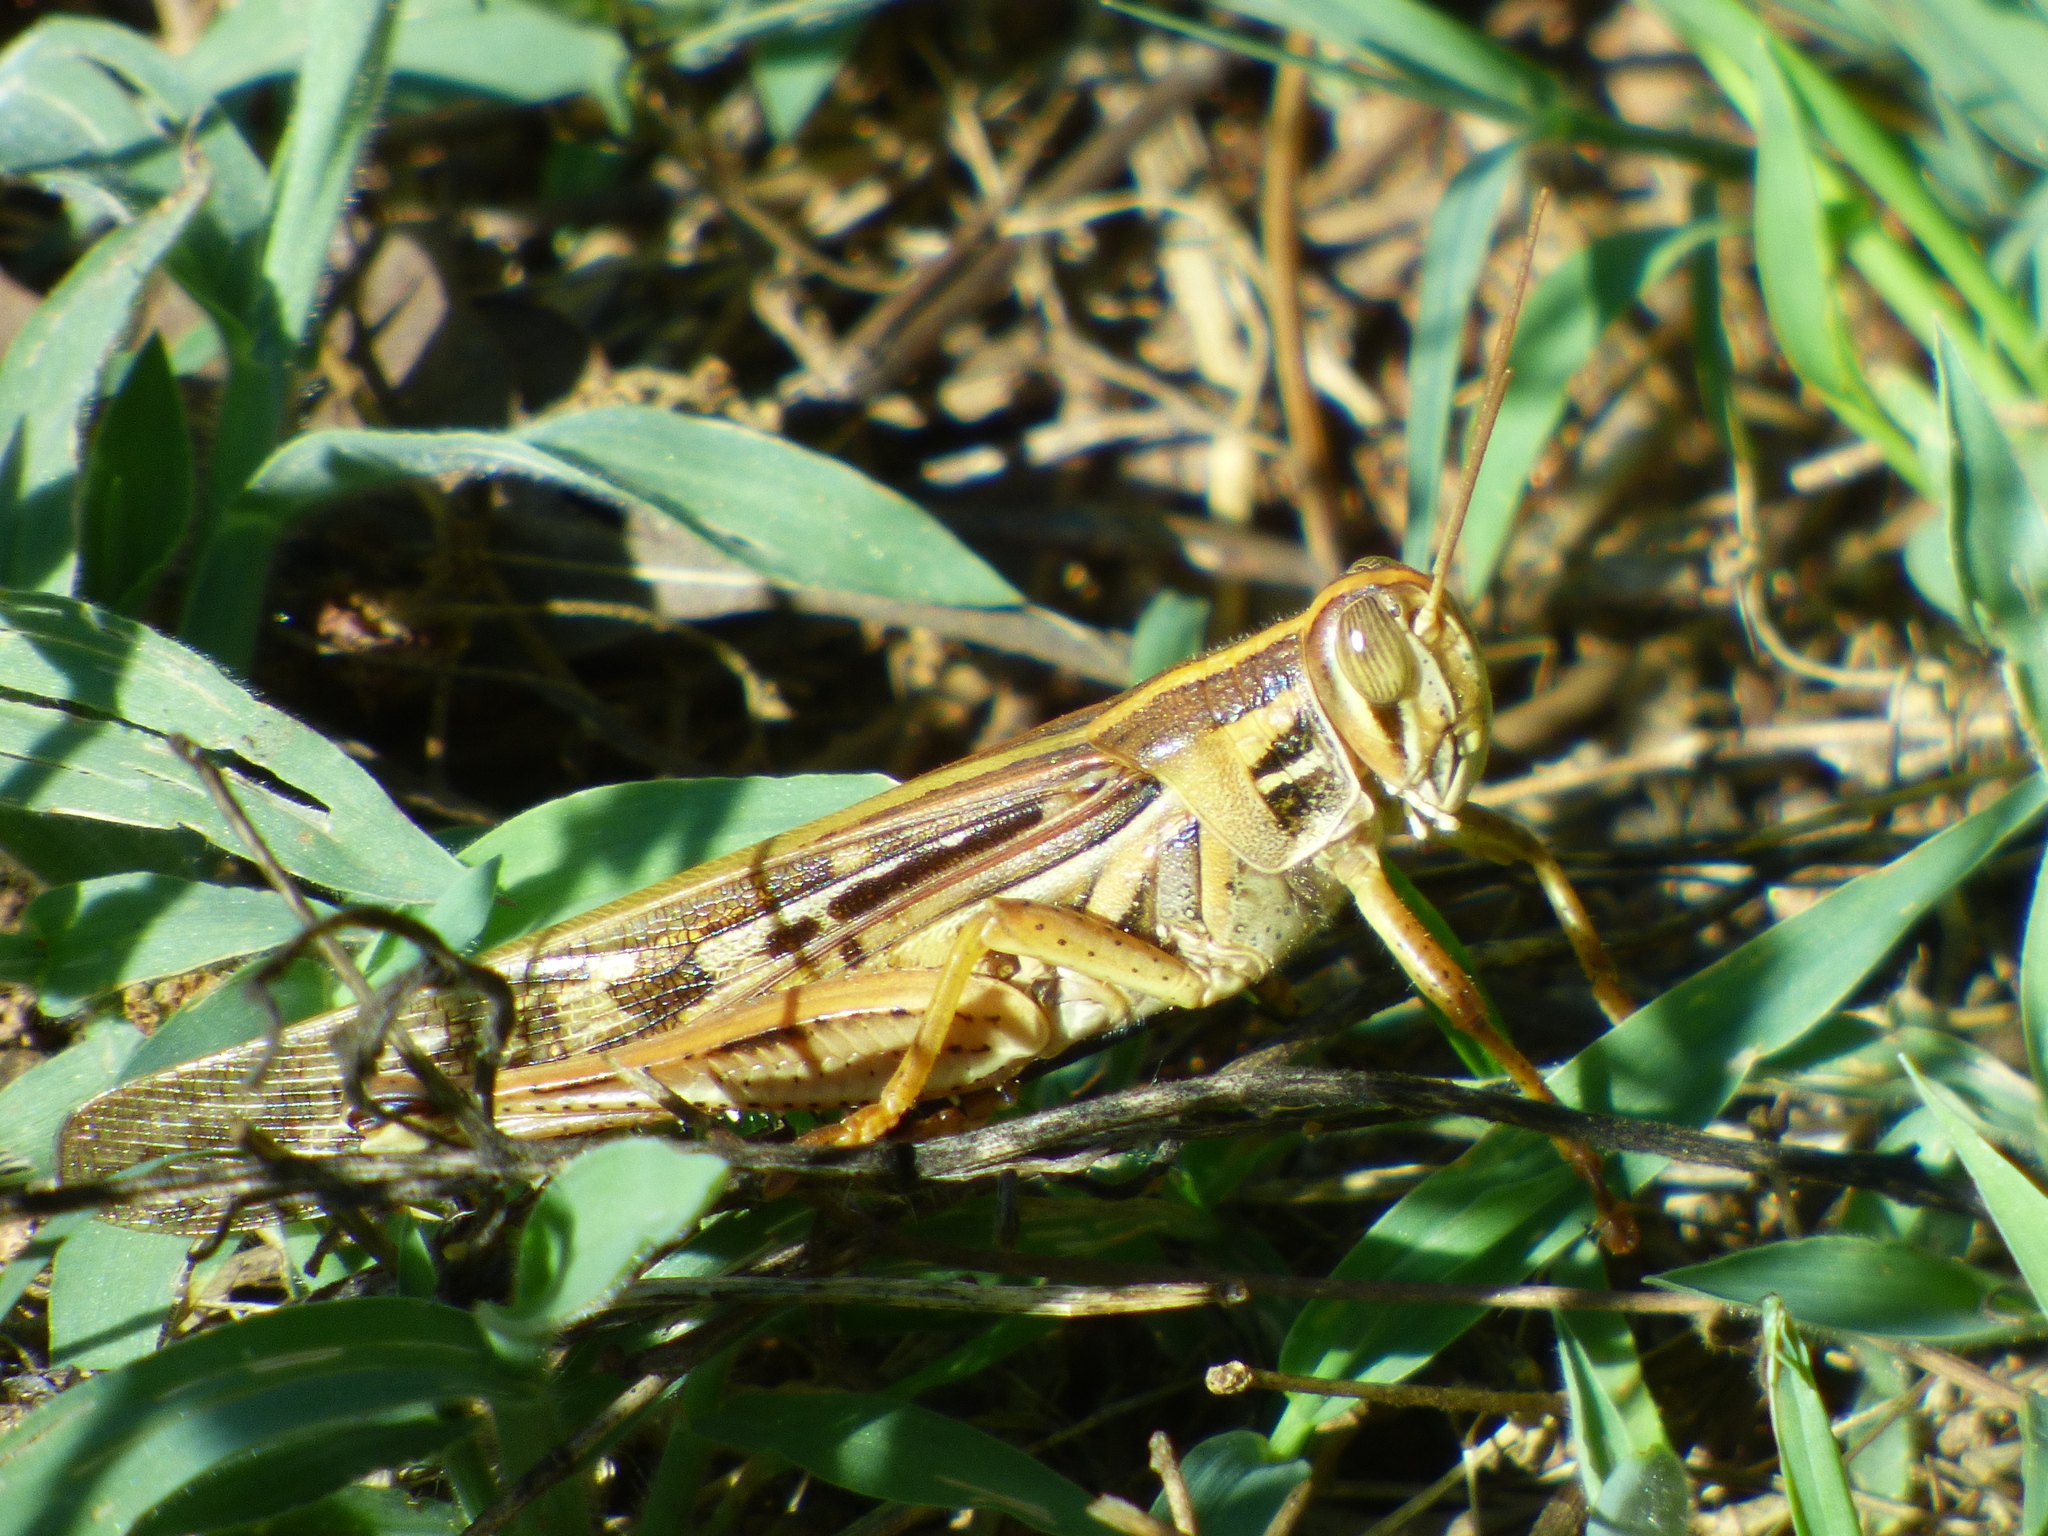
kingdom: Animalia
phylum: Arthropoda
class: Insecta
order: Orthoptera
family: Acrididae
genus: Schistocerca
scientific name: Schistocerca americana
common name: American bird locust
